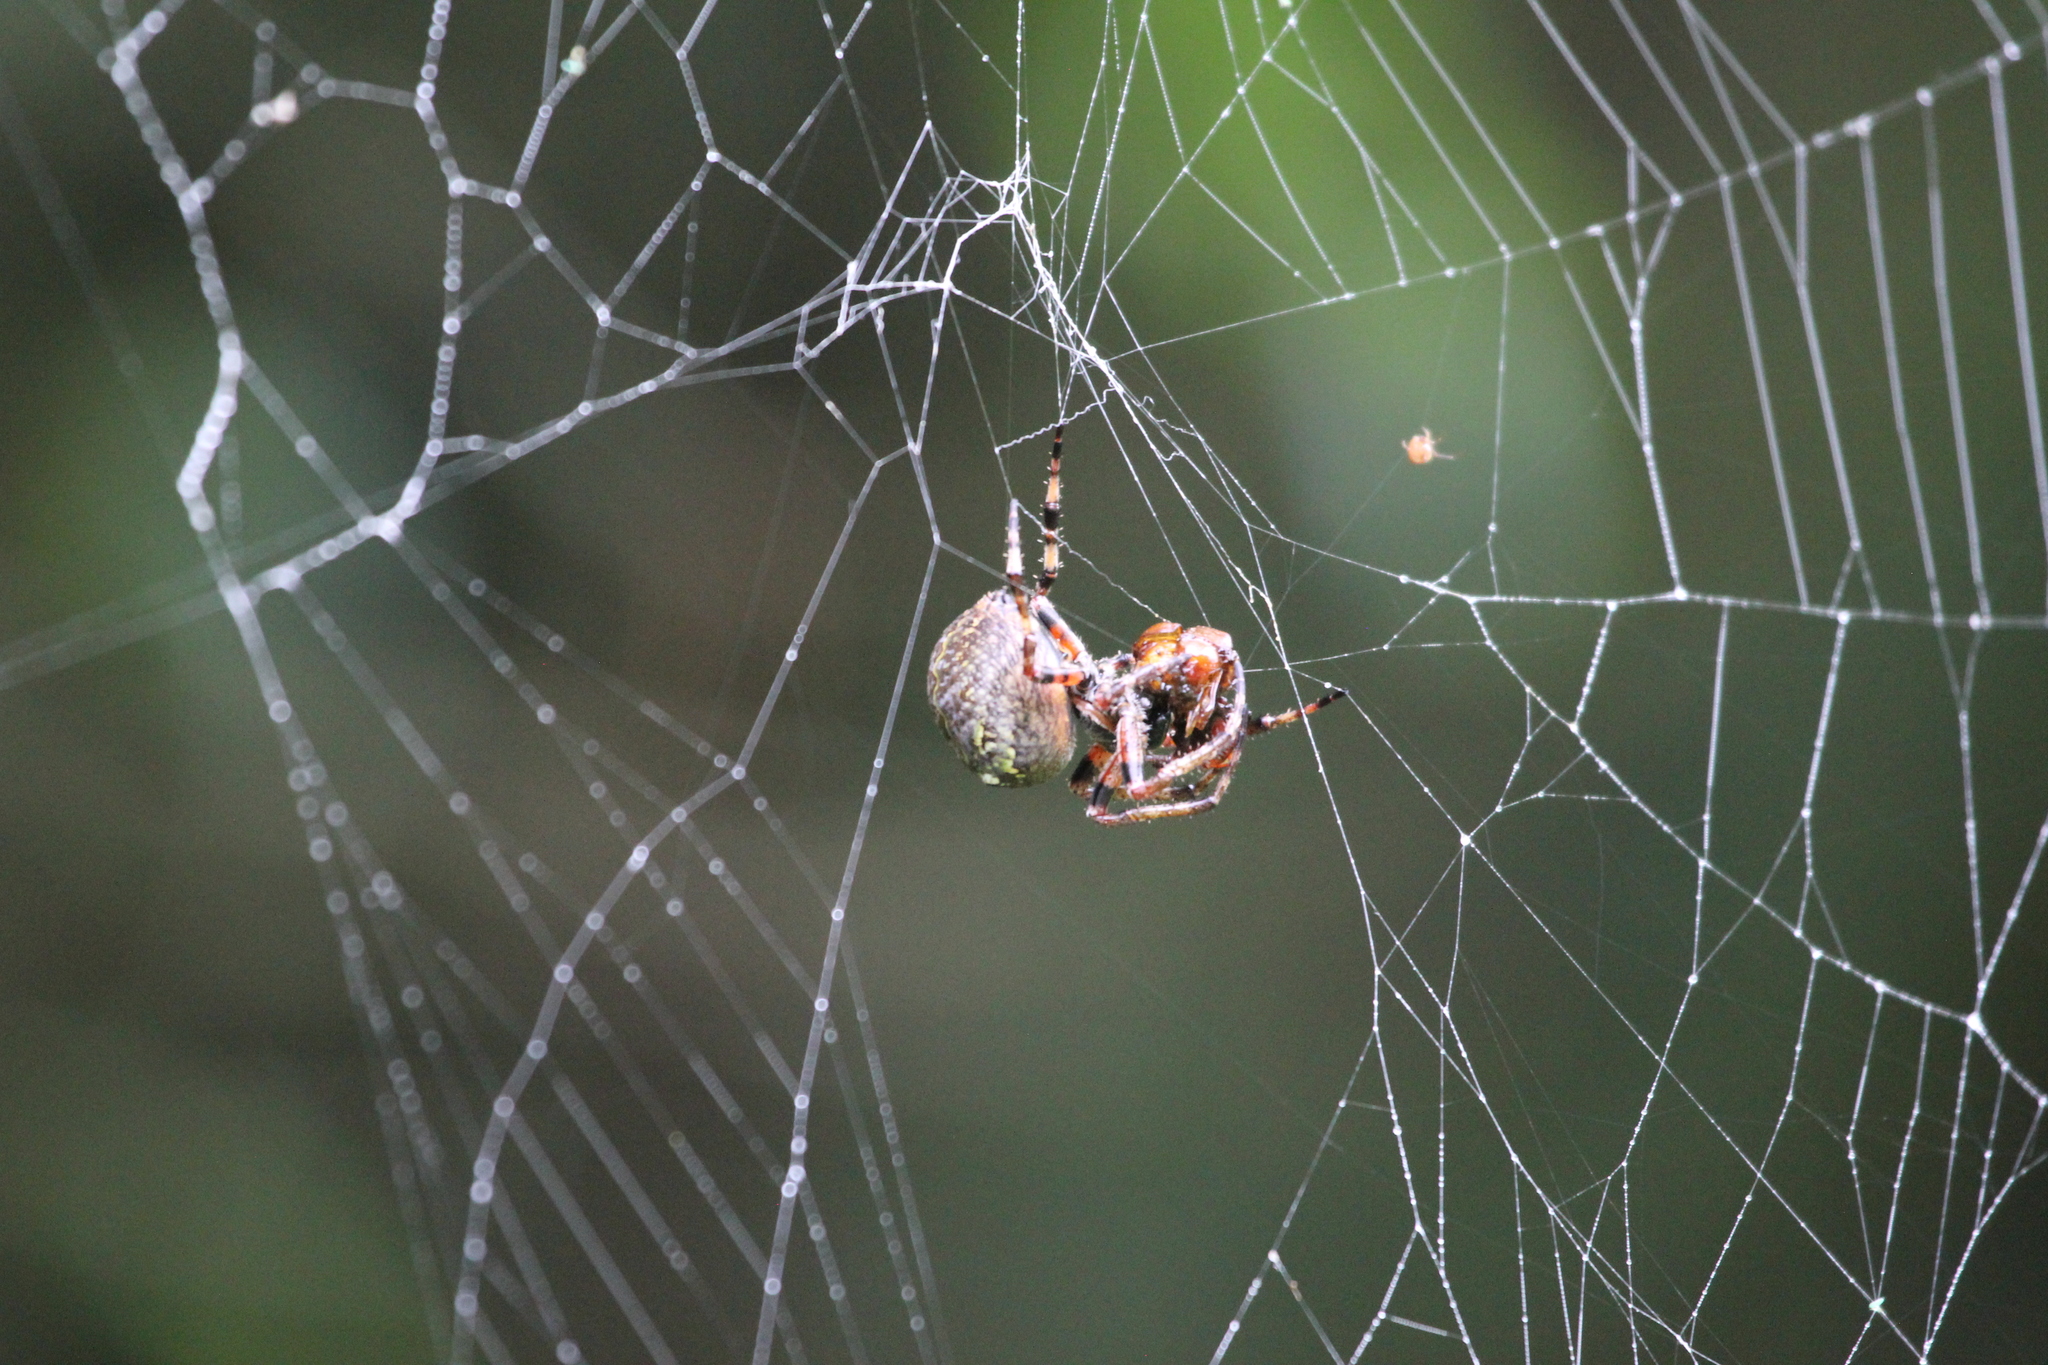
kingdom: Animalia
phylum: Arthropoda
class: Arachnida
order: Araneae
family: Araneidae
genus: Araneus
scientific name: Araneus bicentenarius
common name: Giant lichen orbweaver
